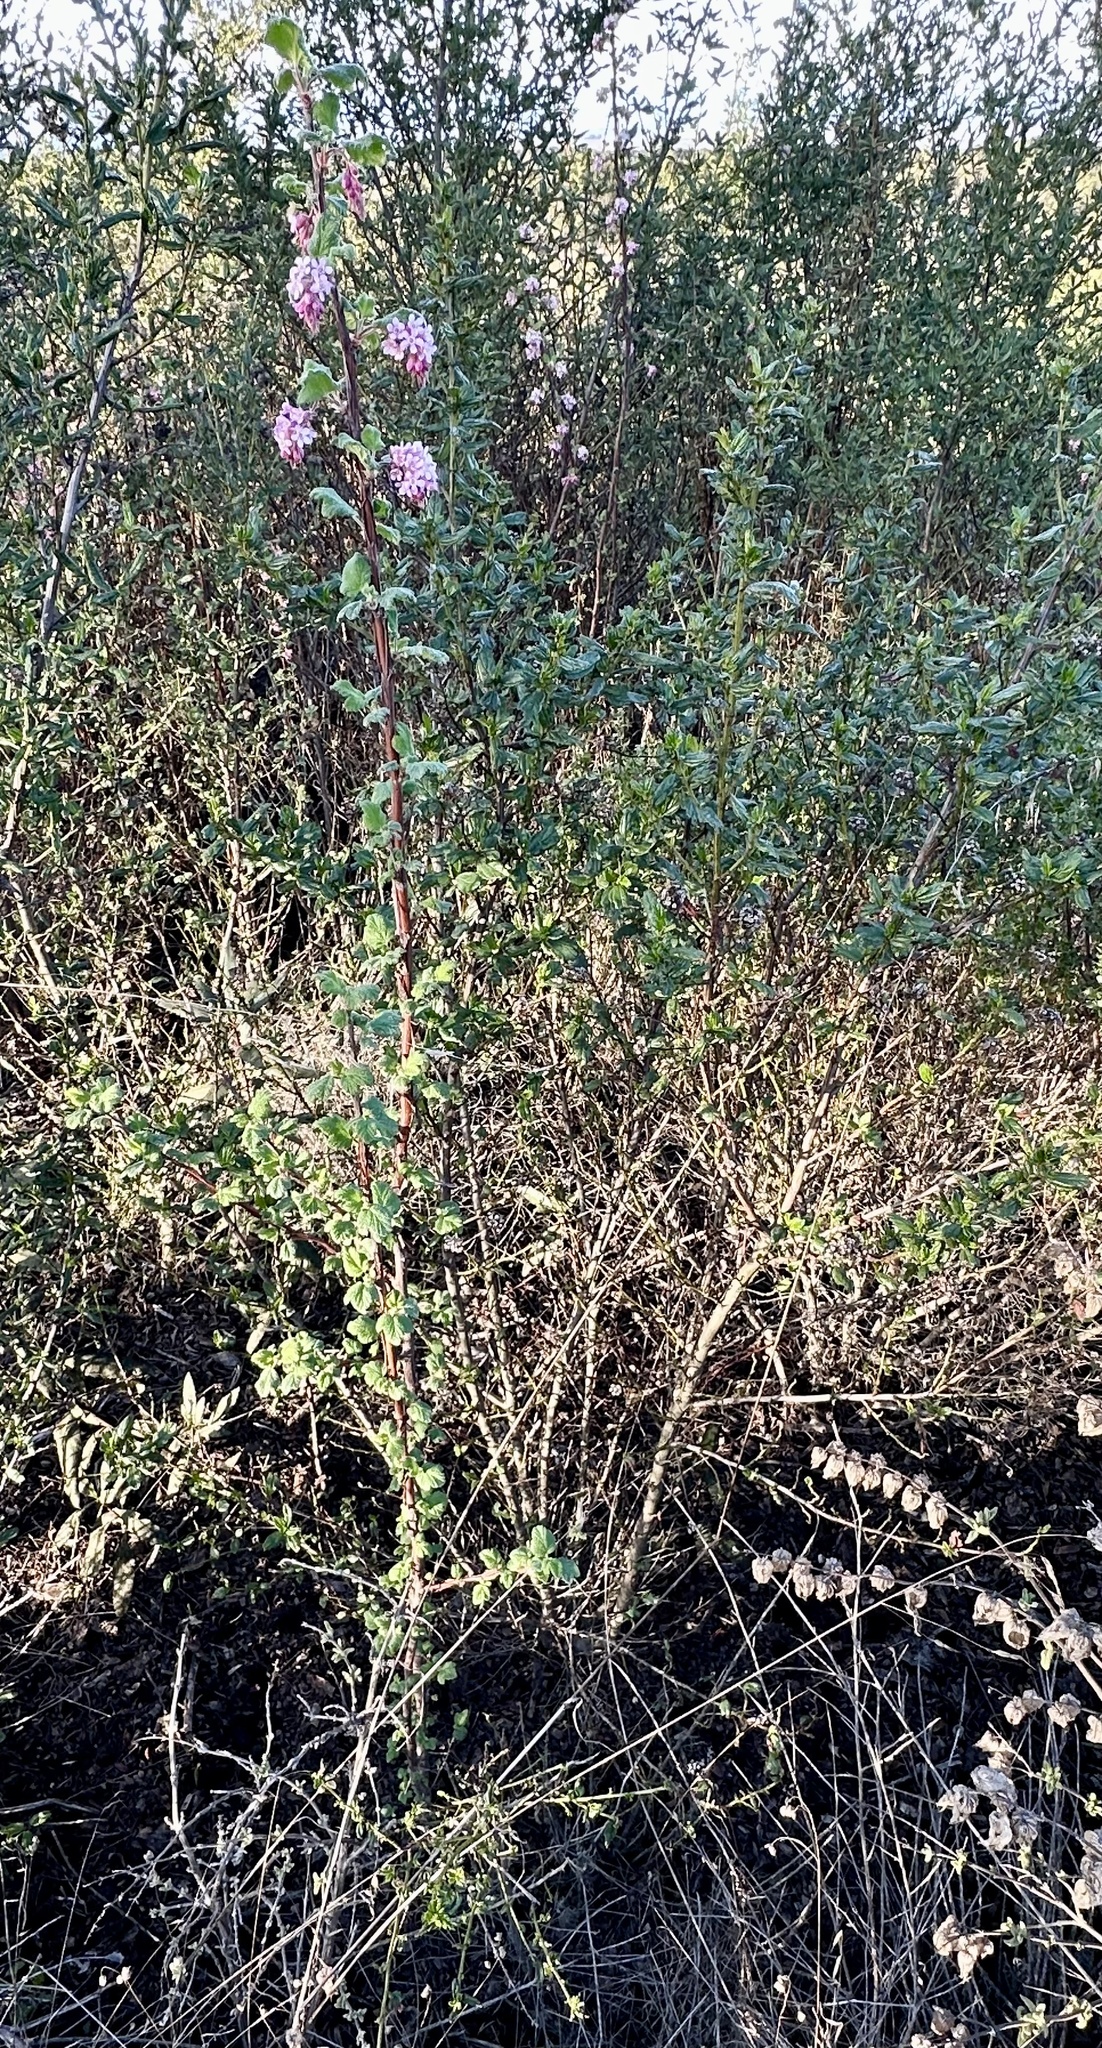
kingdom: Plantae
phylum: Tracheophyta
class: Magnoliopsida
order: Saxifragales
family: Grossulariaceae
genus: Ribes
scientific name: Ribes malvaceum
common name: Chaparral currant
